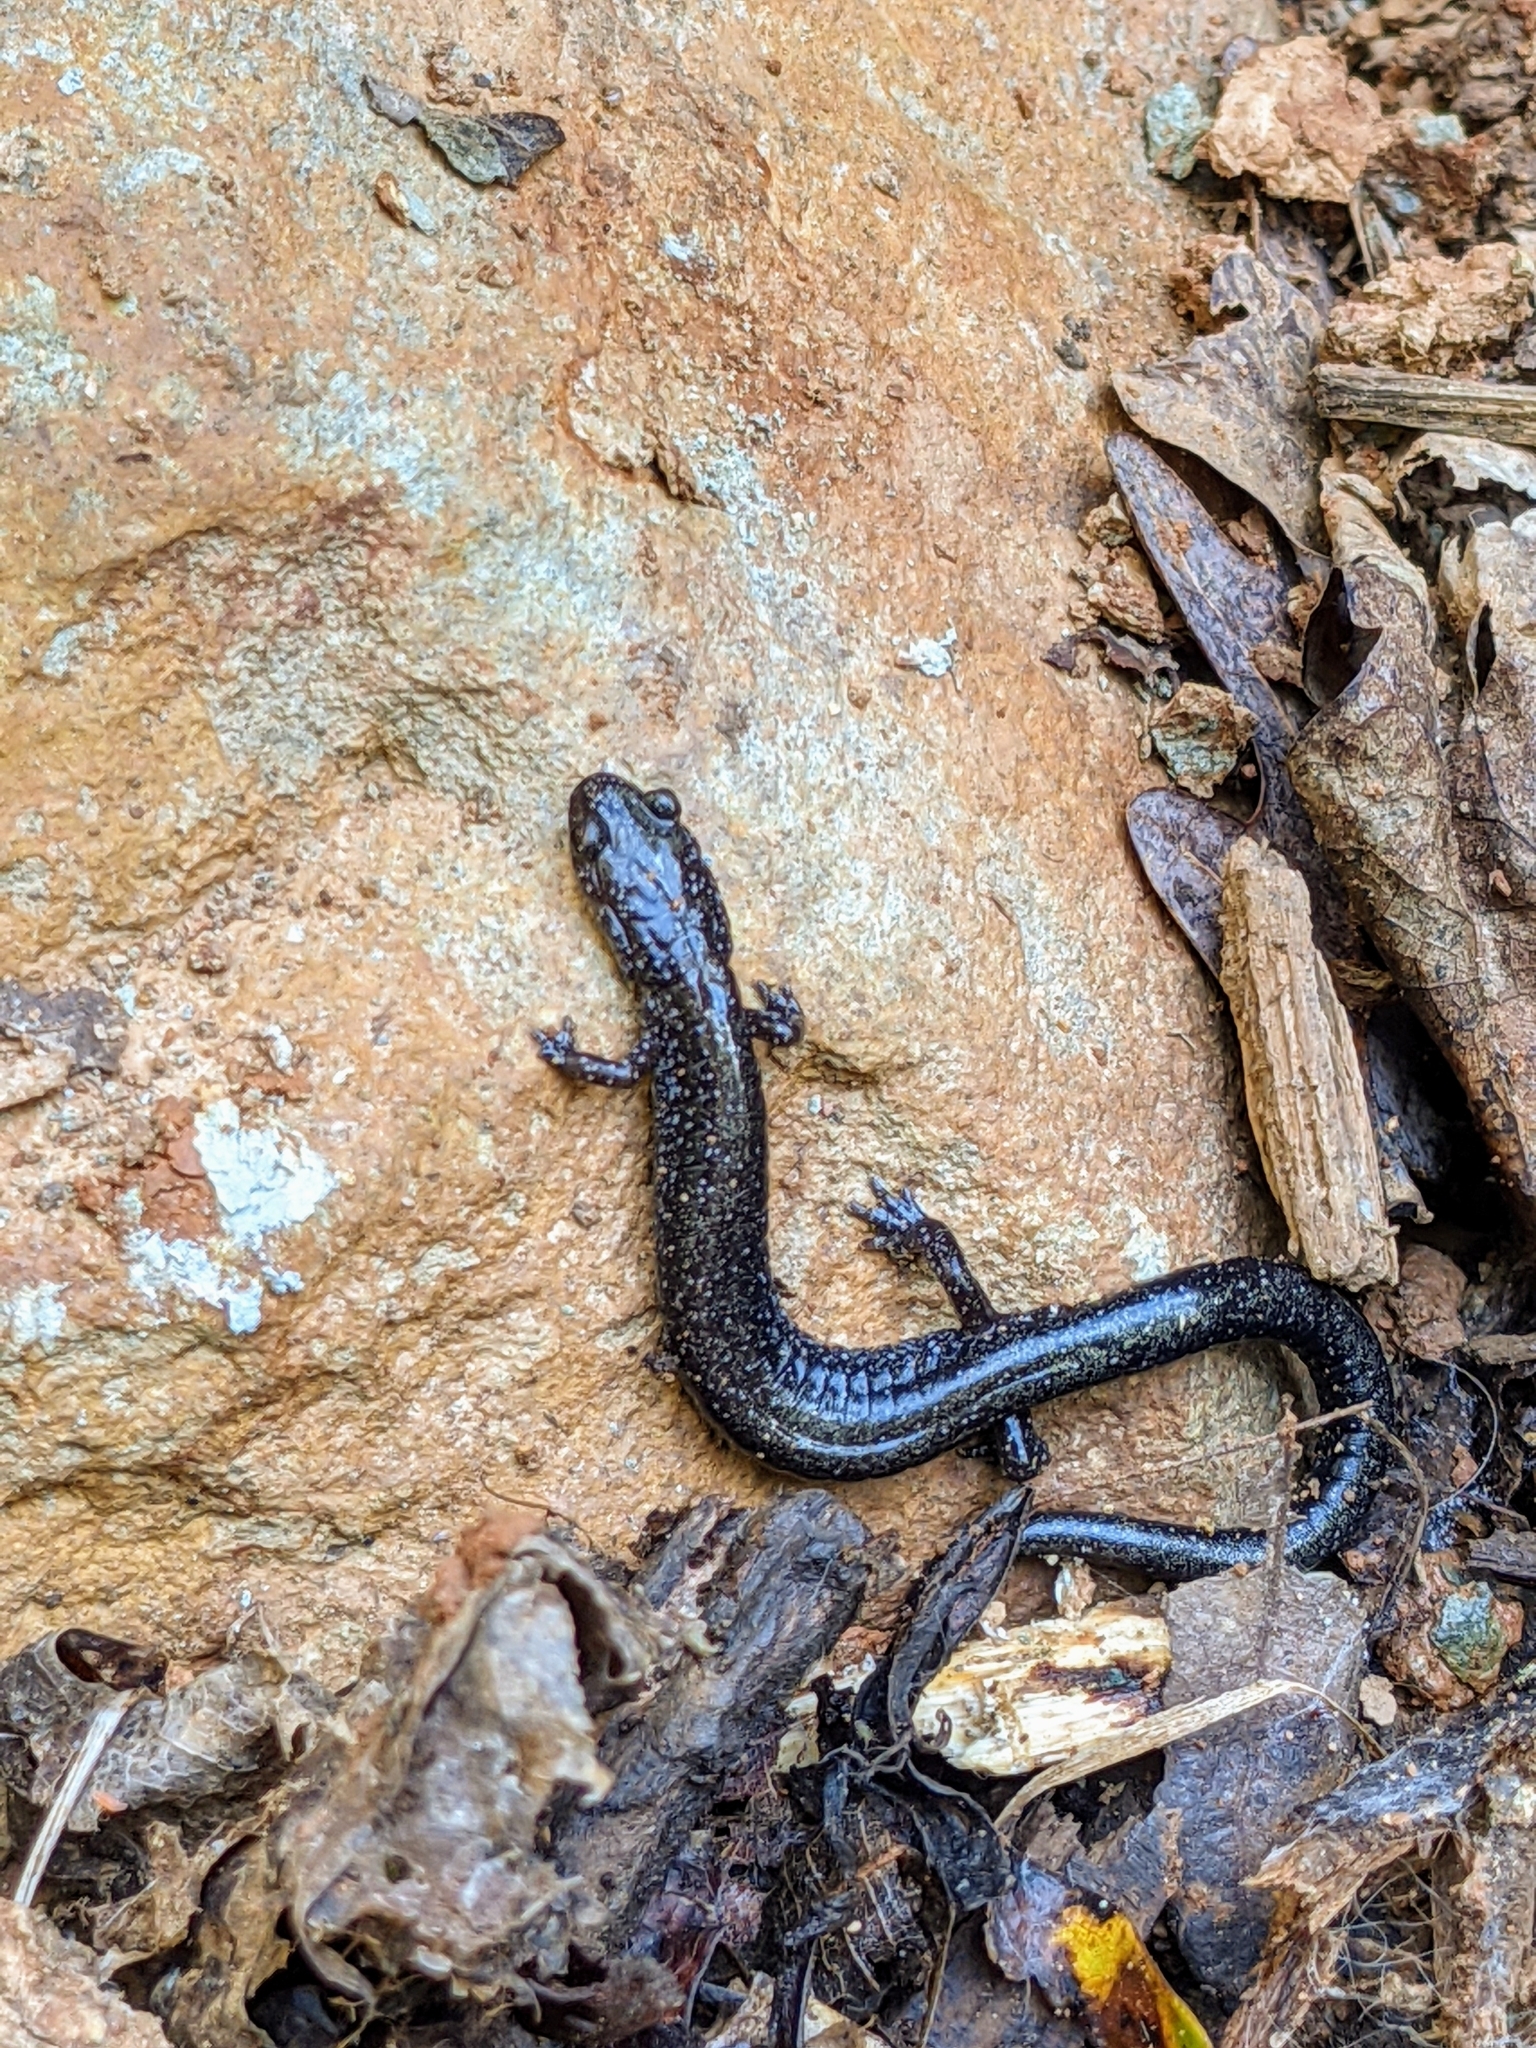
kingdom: Animalia
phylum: Chordata
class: Amphibia
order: Caudata
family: Plethodontidae
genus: Plethodon
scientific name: Plethodon cinereus
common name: Redback salamander
